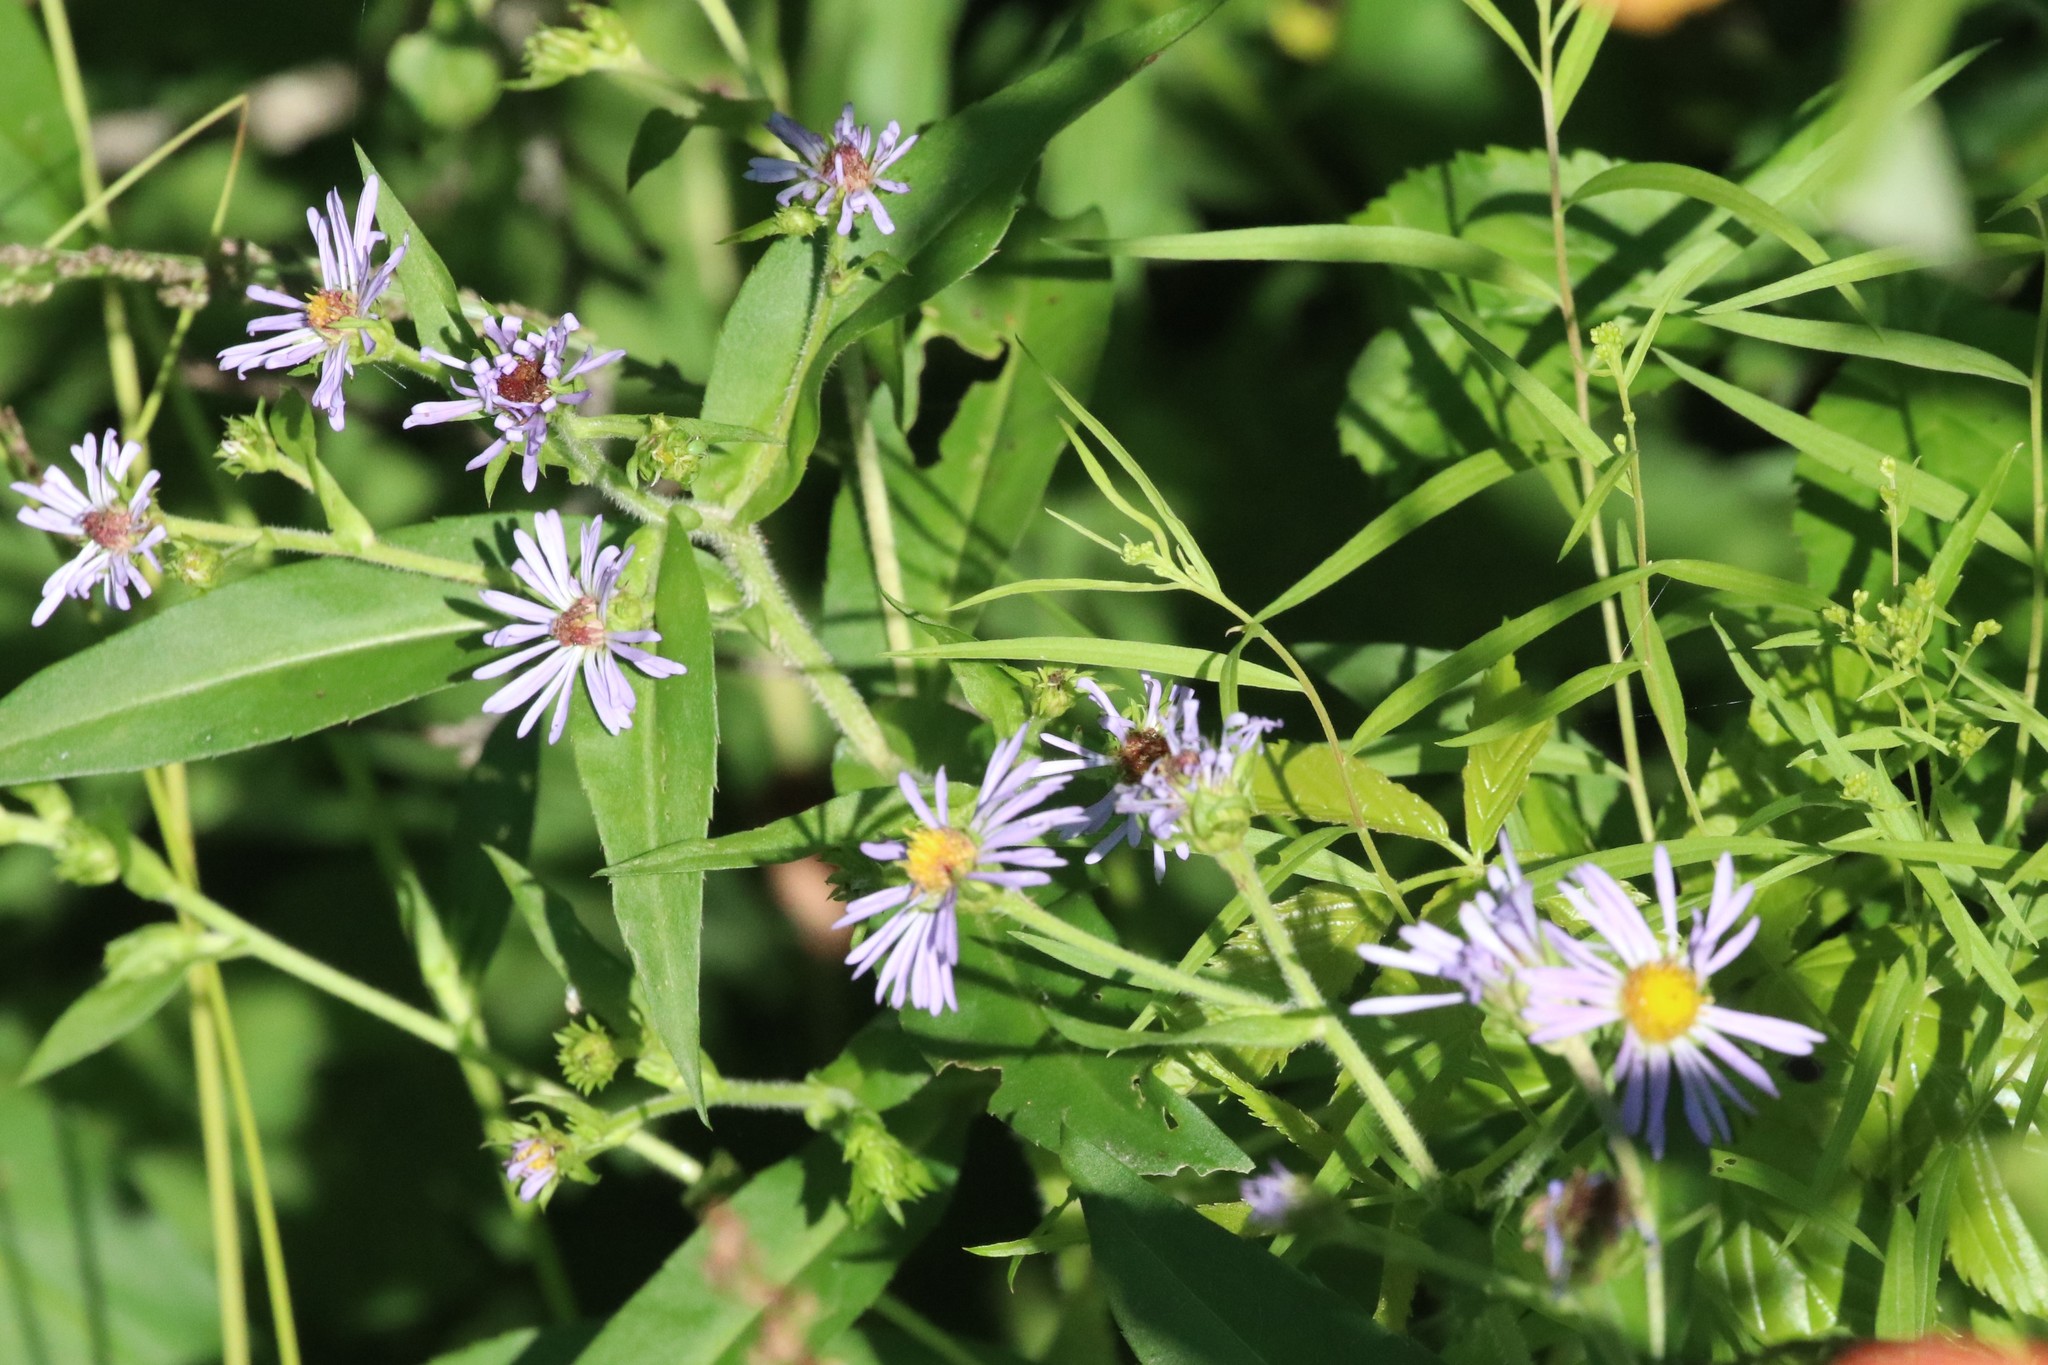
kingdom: Plantae
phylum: Tracheophyta
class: Magnoliopsida
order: Asterales
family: Asteraceae
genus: Symphyotrichum
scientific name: Symphyotrichum puniceum
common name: Bog aster
